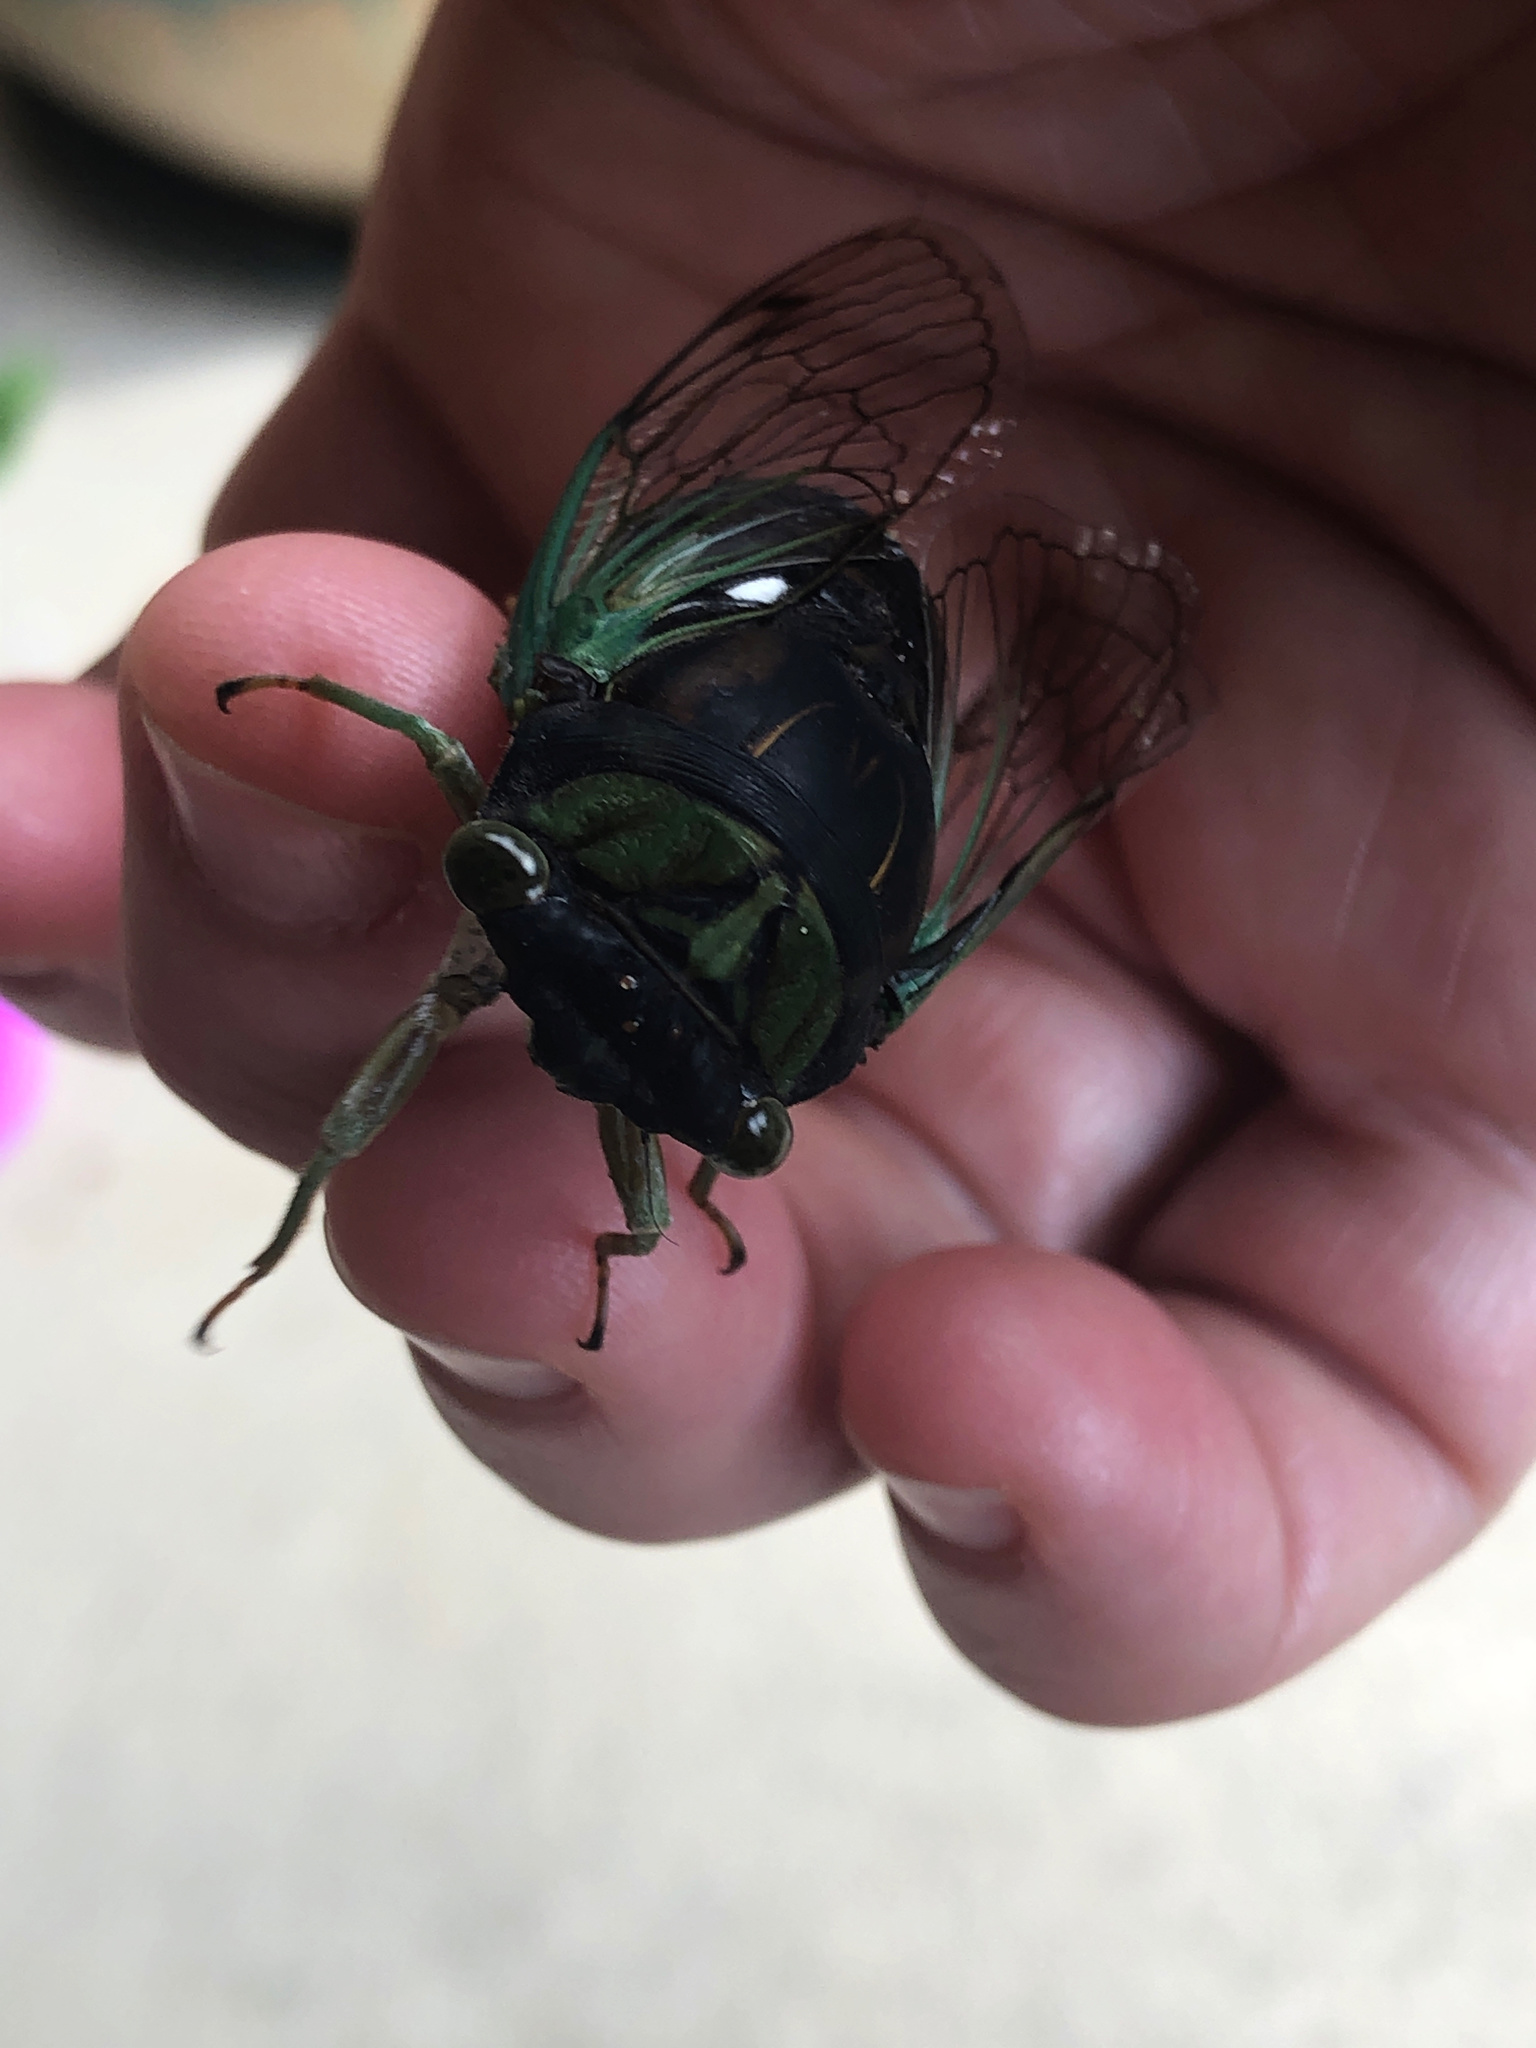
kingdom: Animalia
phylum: Arthropoda
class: Insecta
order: Hemiptera
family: Cicadidae
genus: Neotibicen
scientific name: Neotibicen tibicen
